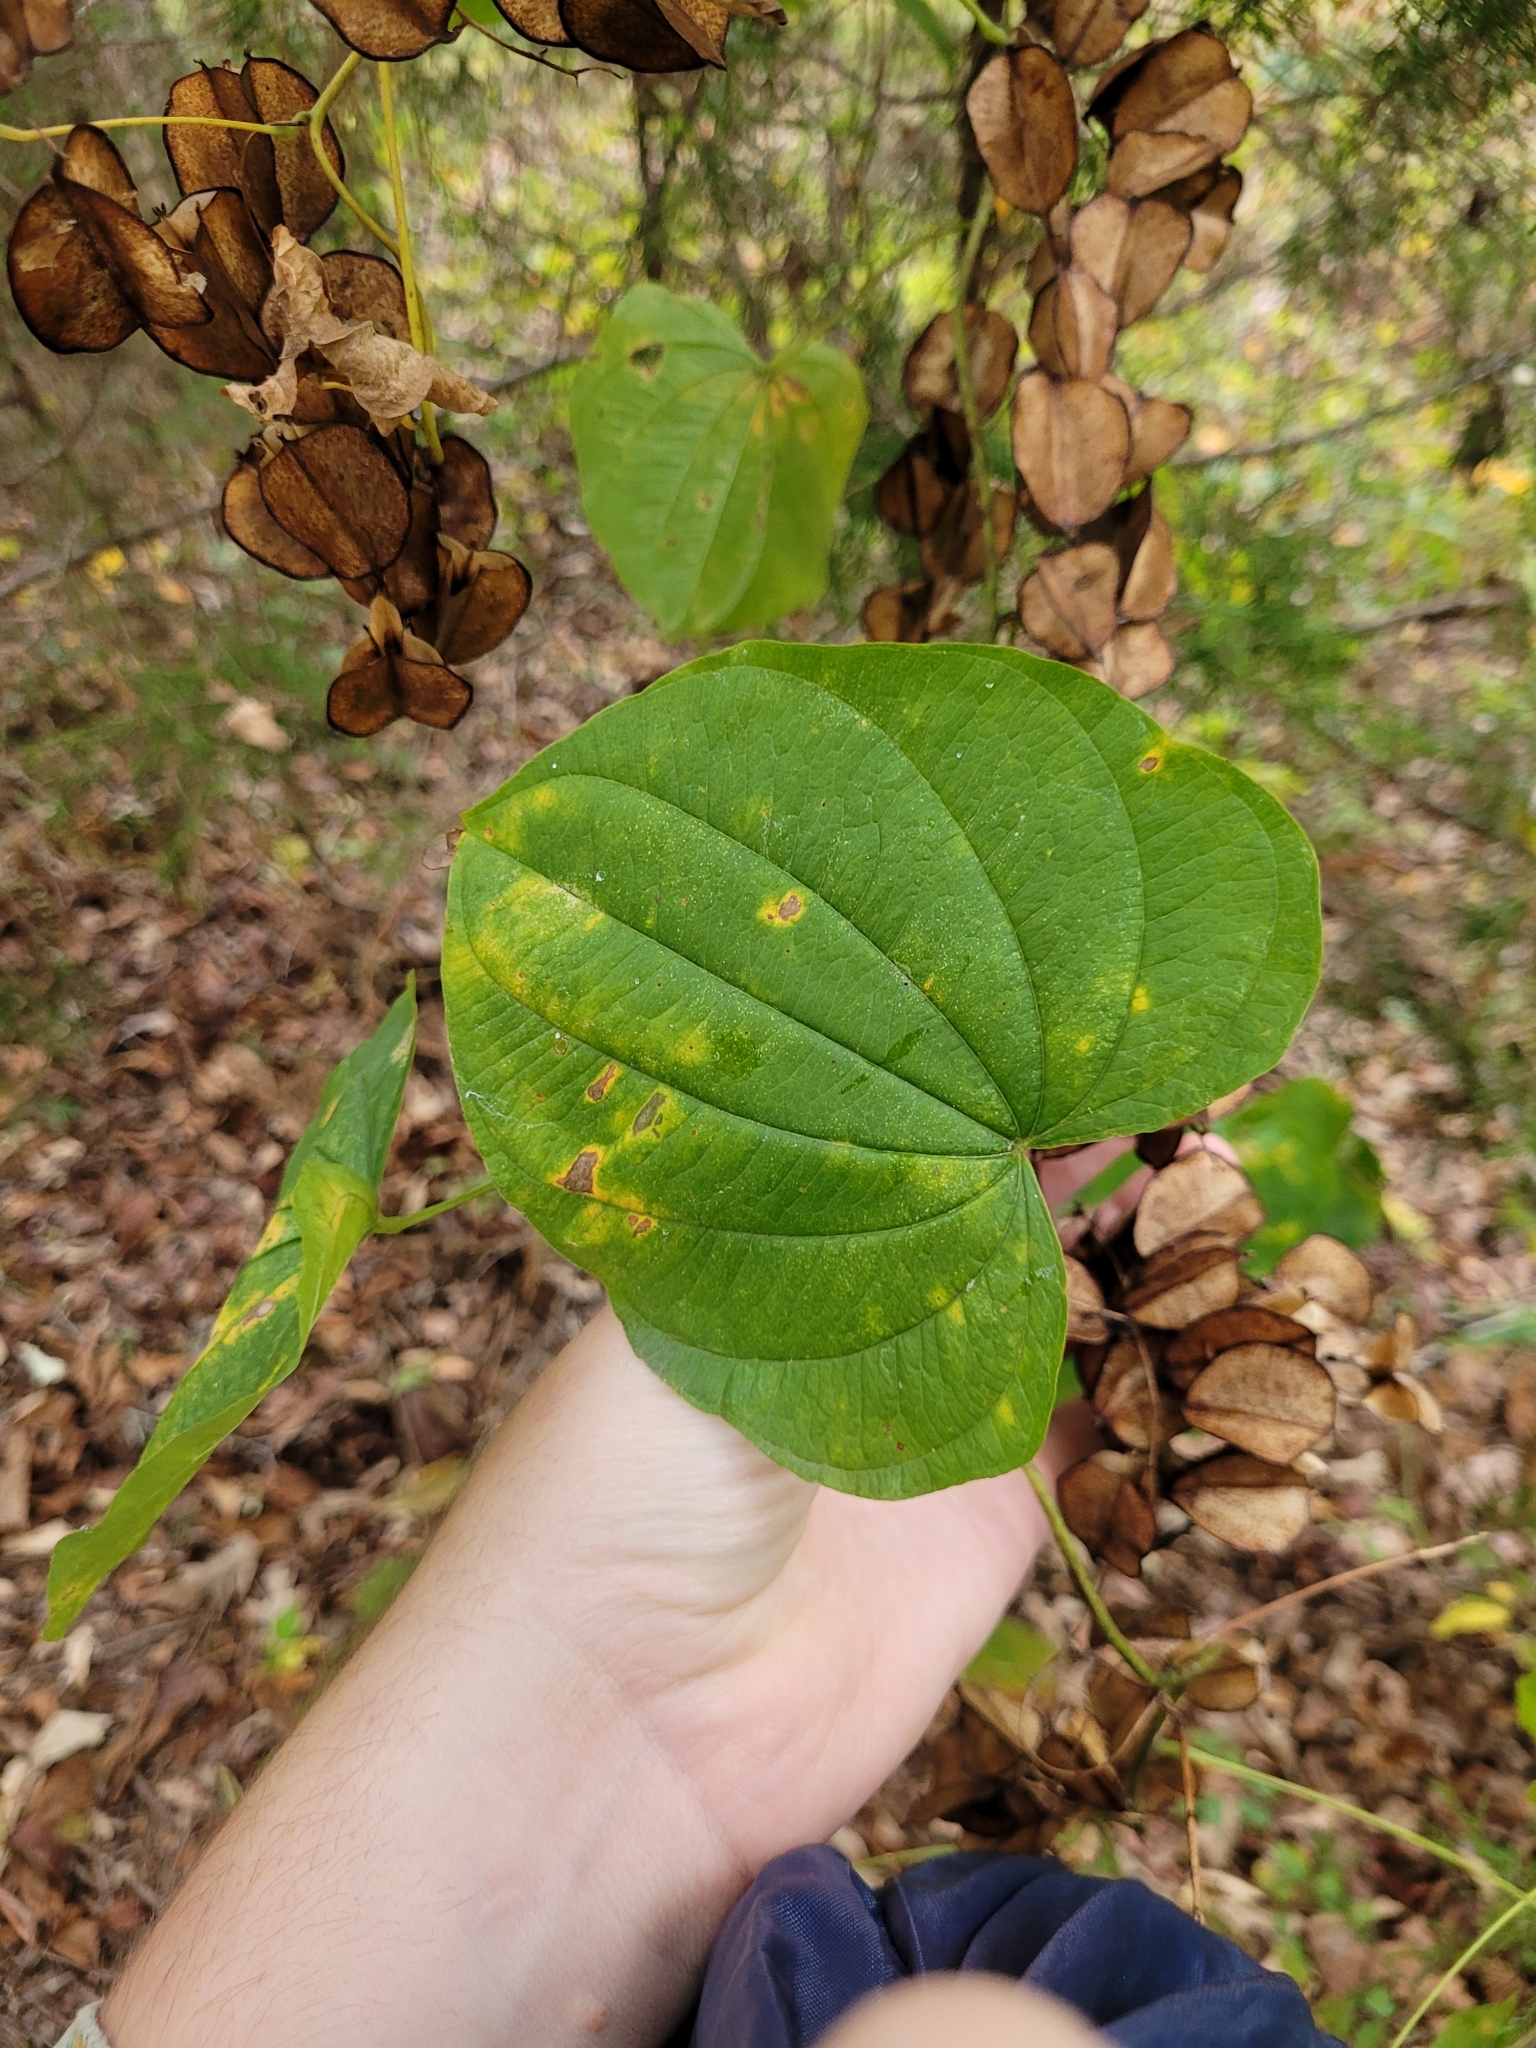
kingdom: Plantae
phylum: Tracheophyta
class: Liliopsida
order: Dioscoreales
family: Dioscoreaceae
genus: Dioscorea
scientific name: Dioscorea villosa
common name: Wild yam
